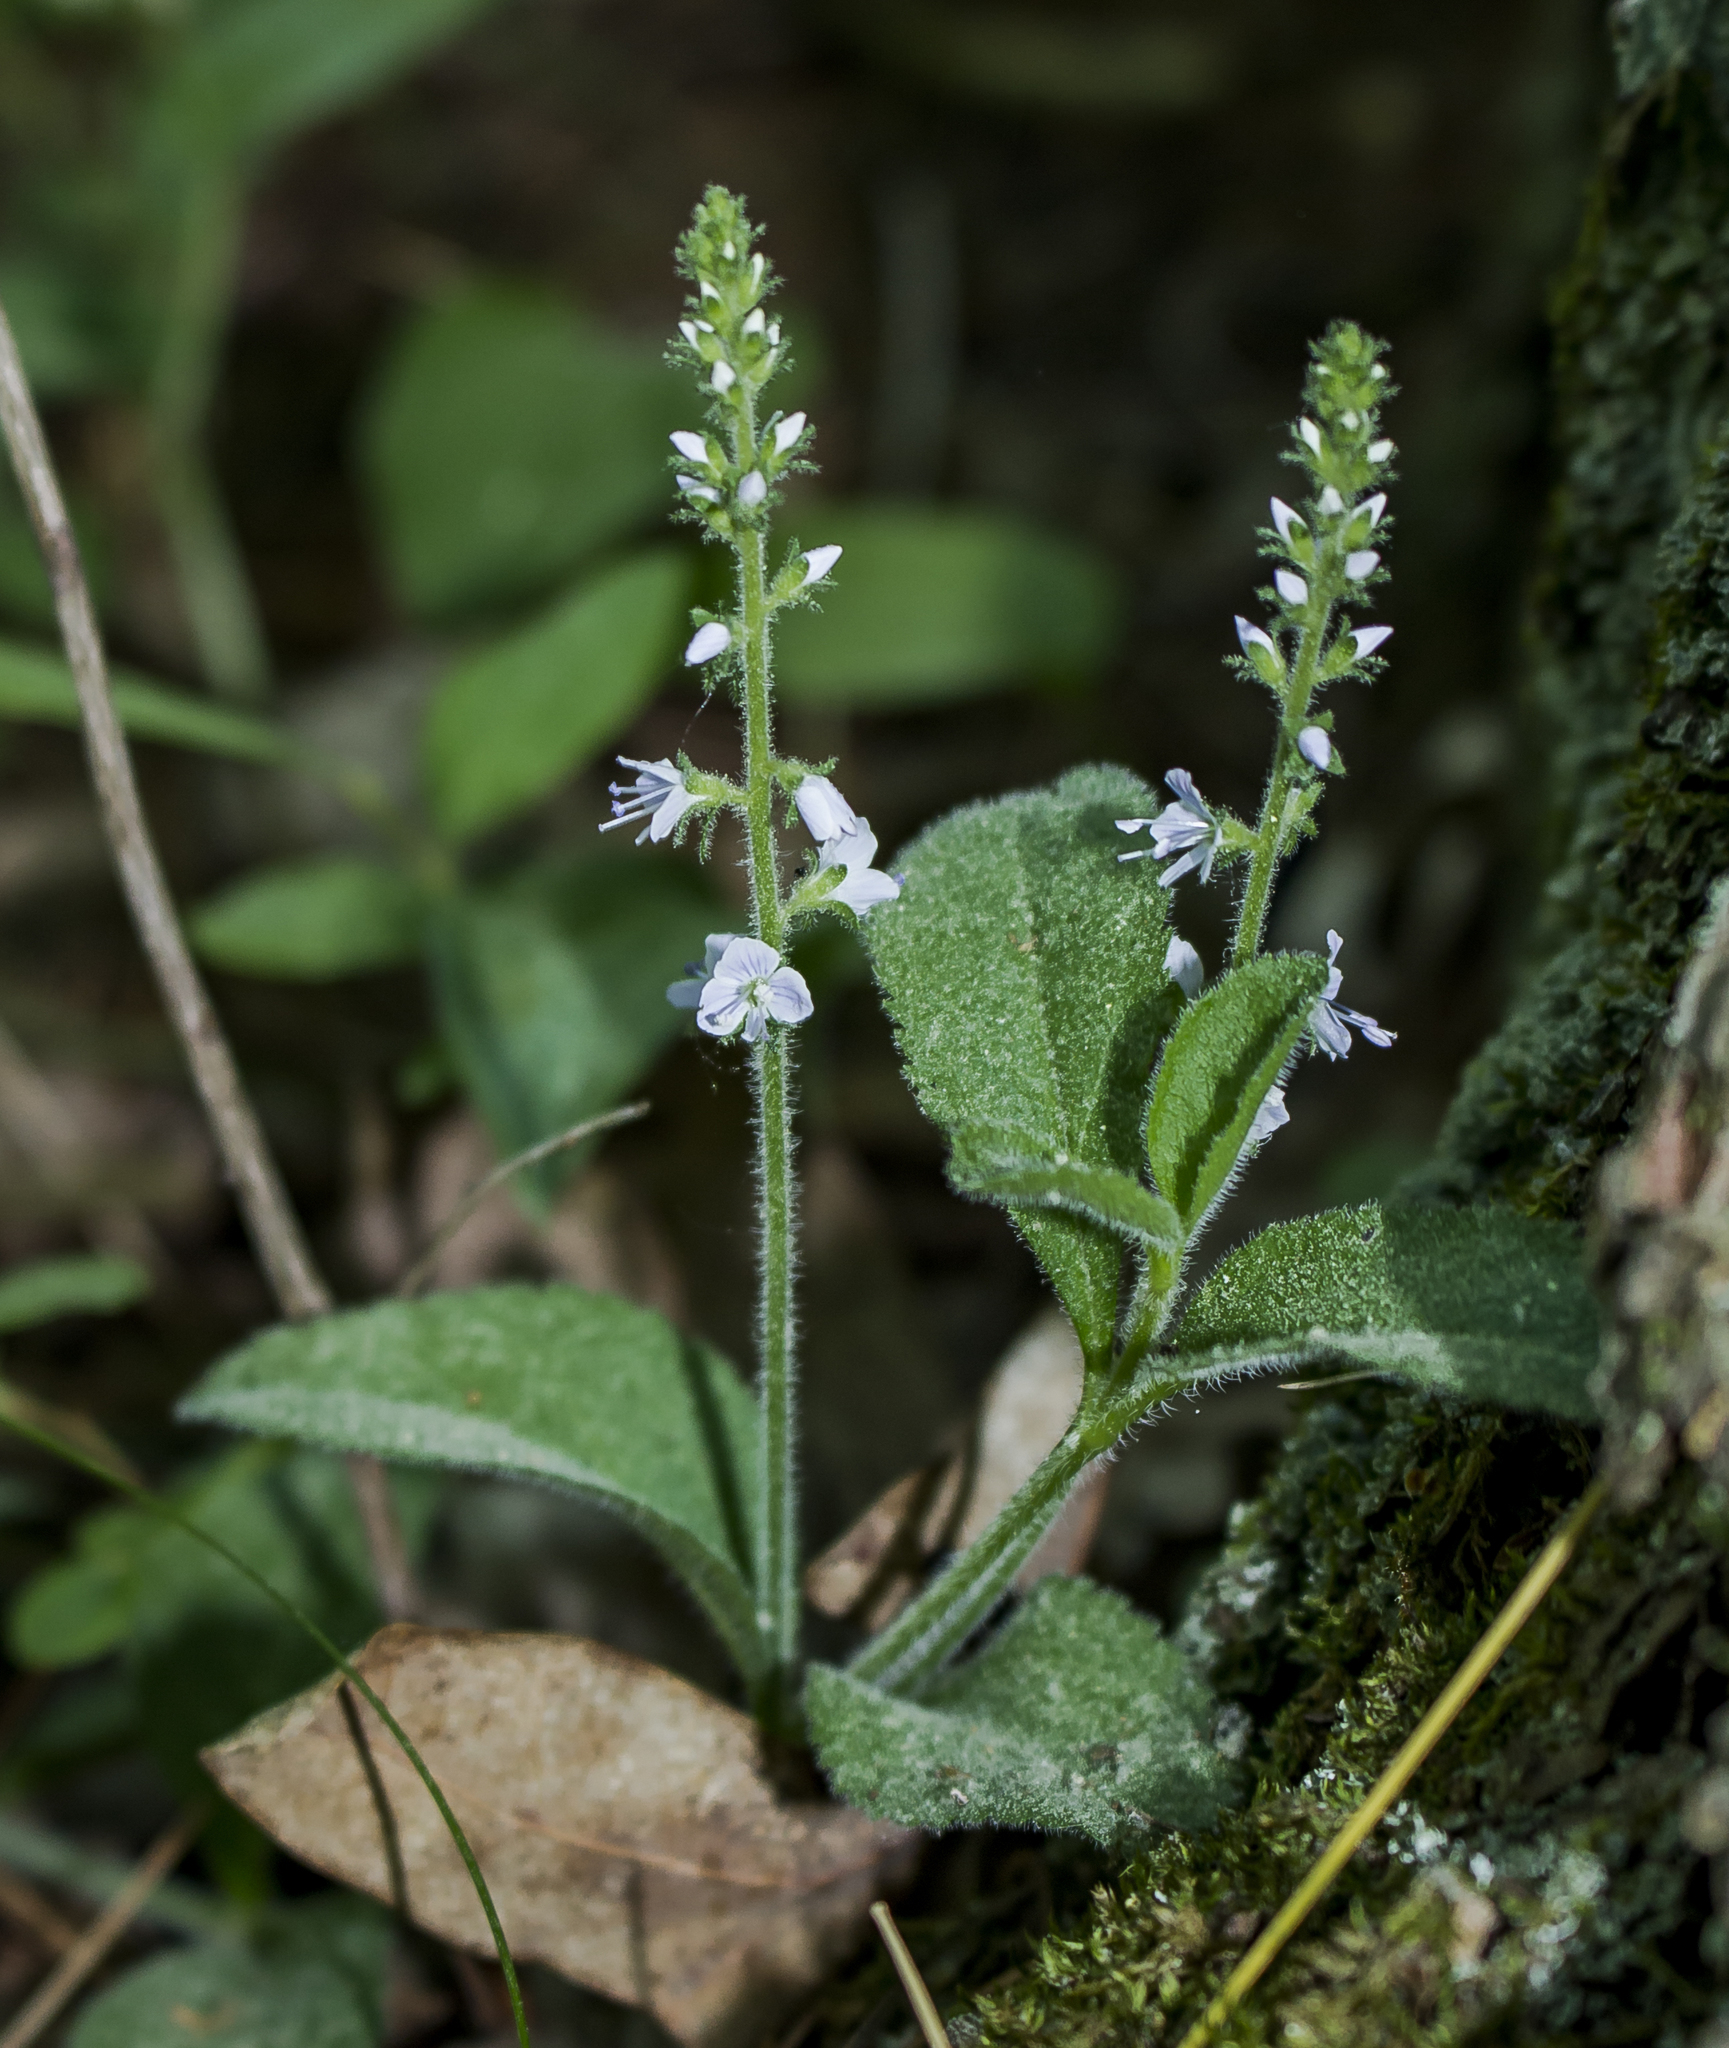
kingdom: Plantae
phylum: Tracheophyta
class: Magnoliopsida
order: Lamiales
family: Plantaginaceae
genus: Veronica
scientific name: Veronica officinalis
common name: Common speedwell
